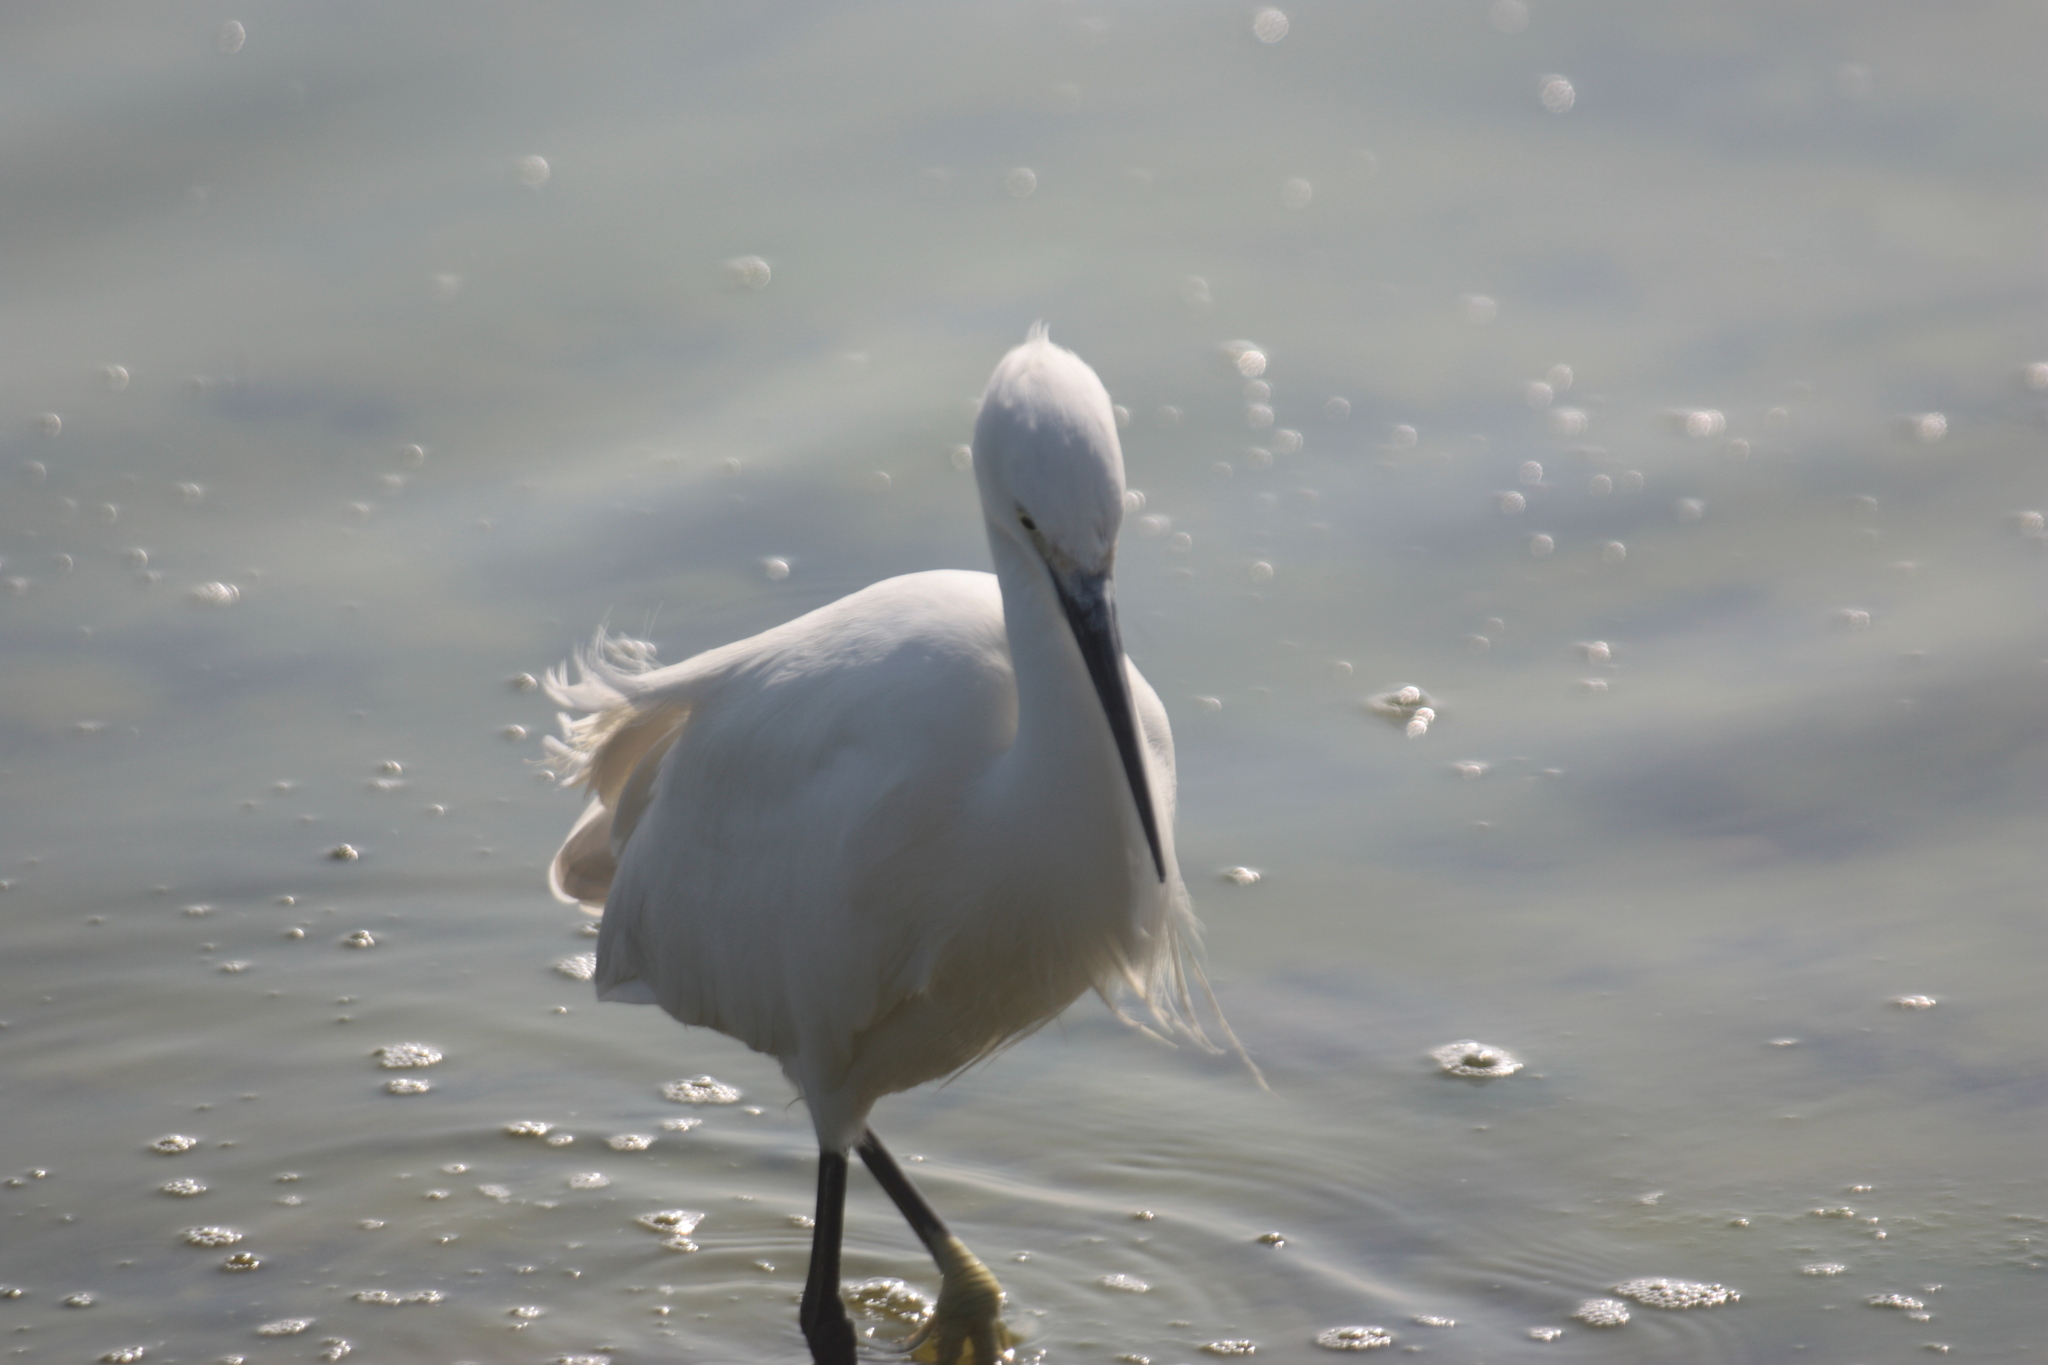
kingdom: Animalia
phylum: Chordata
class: Aves
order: Pelecaniformes
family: Ardeidae
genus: Egretta
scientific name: Egretta garzetta
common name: Little egret
